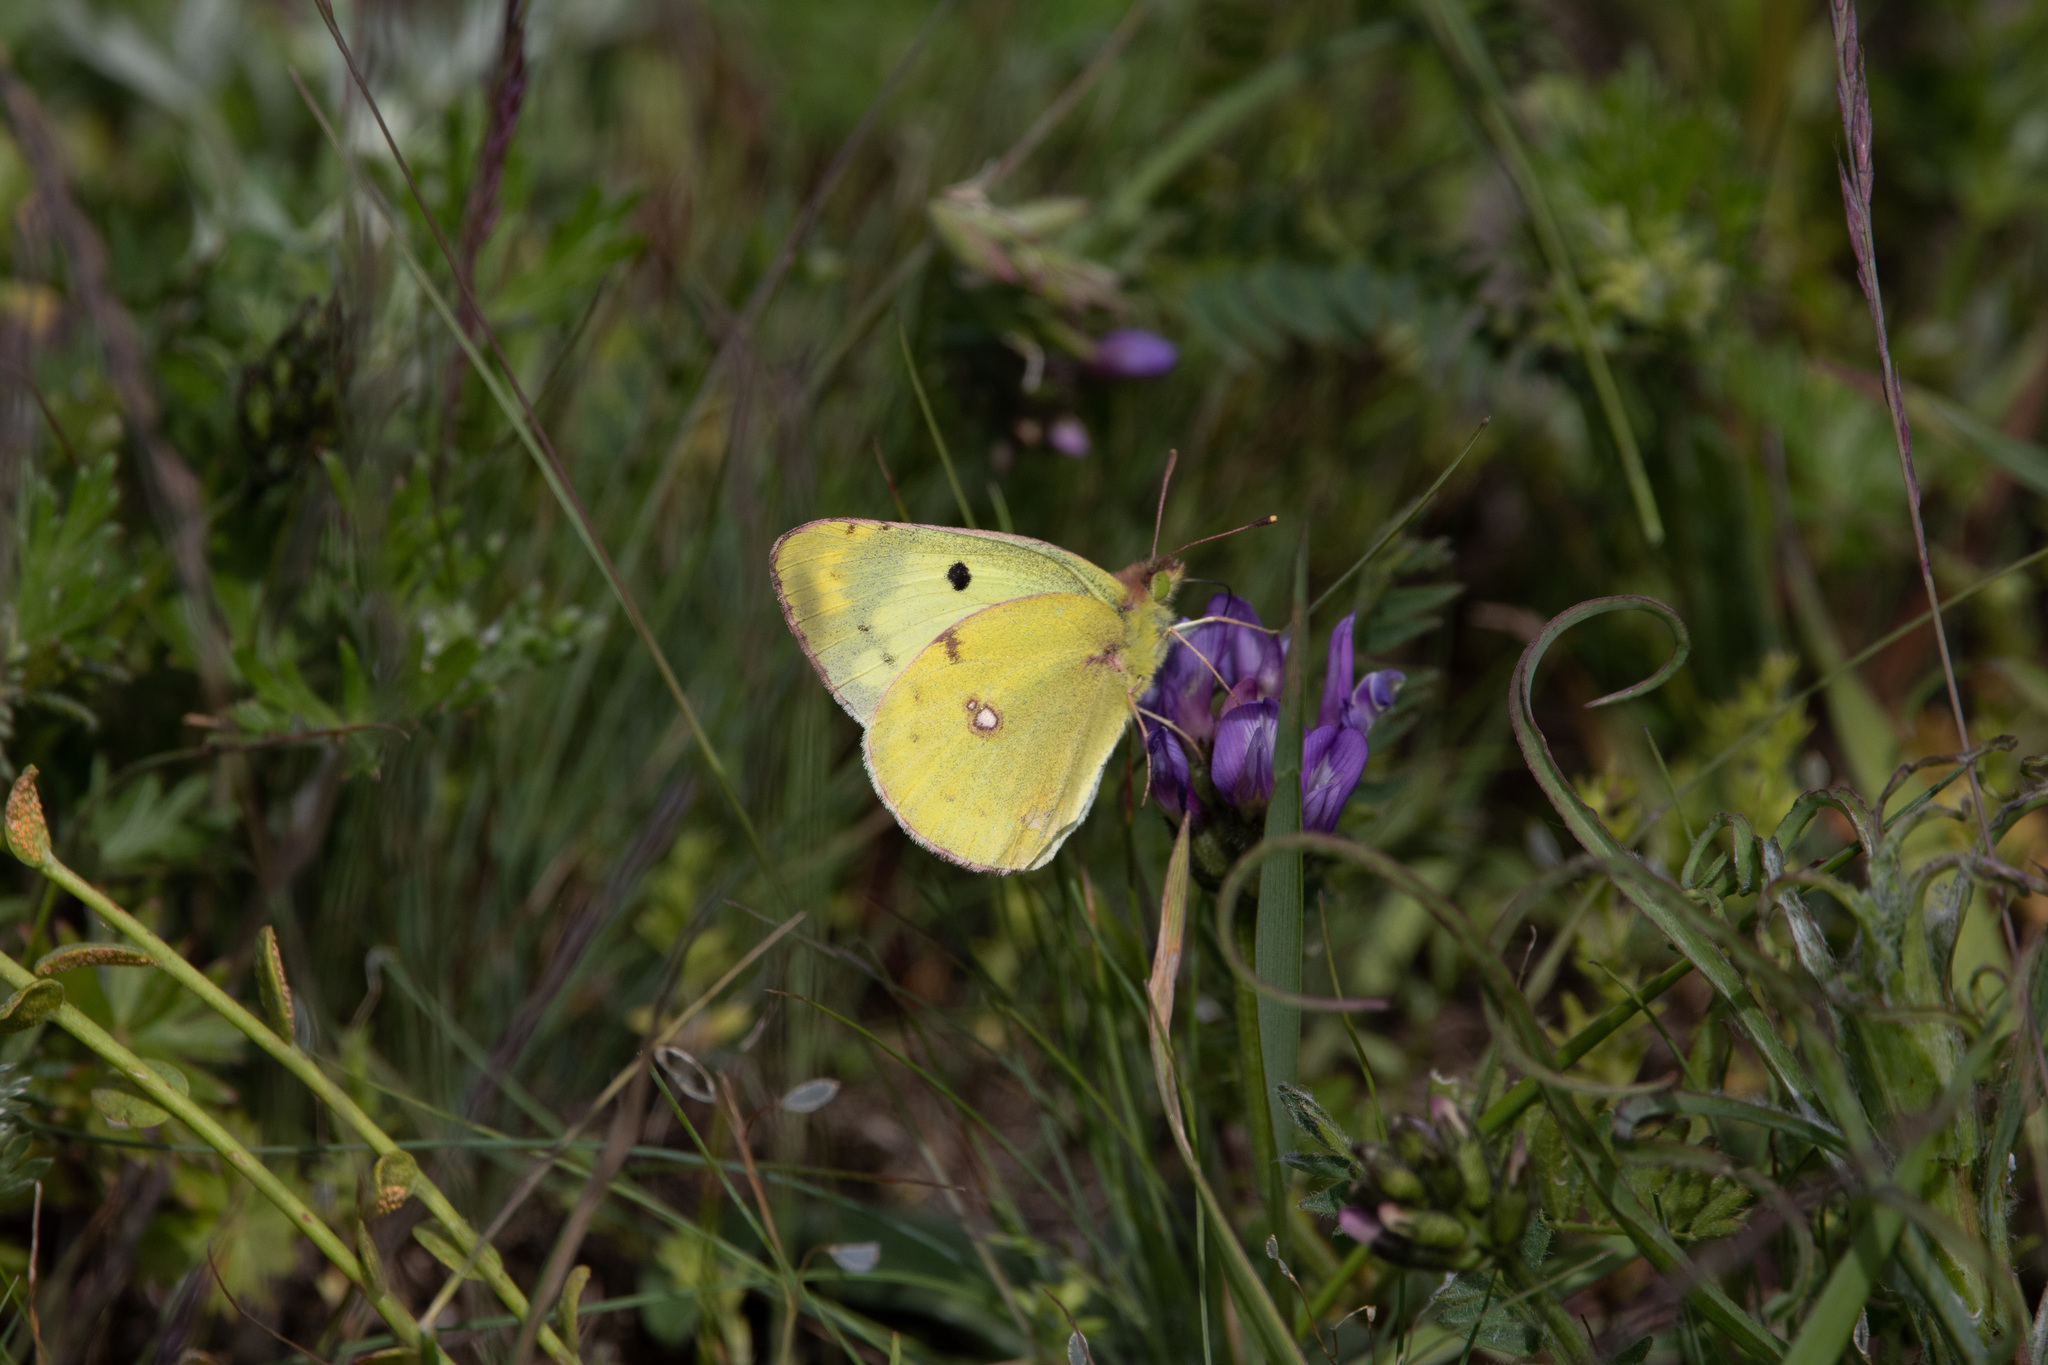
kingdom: Animalia
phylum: Arthropoda
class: Insecta
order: Lepidoptera
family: Pieridae
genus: Colias
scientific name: Colias hyale
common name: Pale clouded yellow
